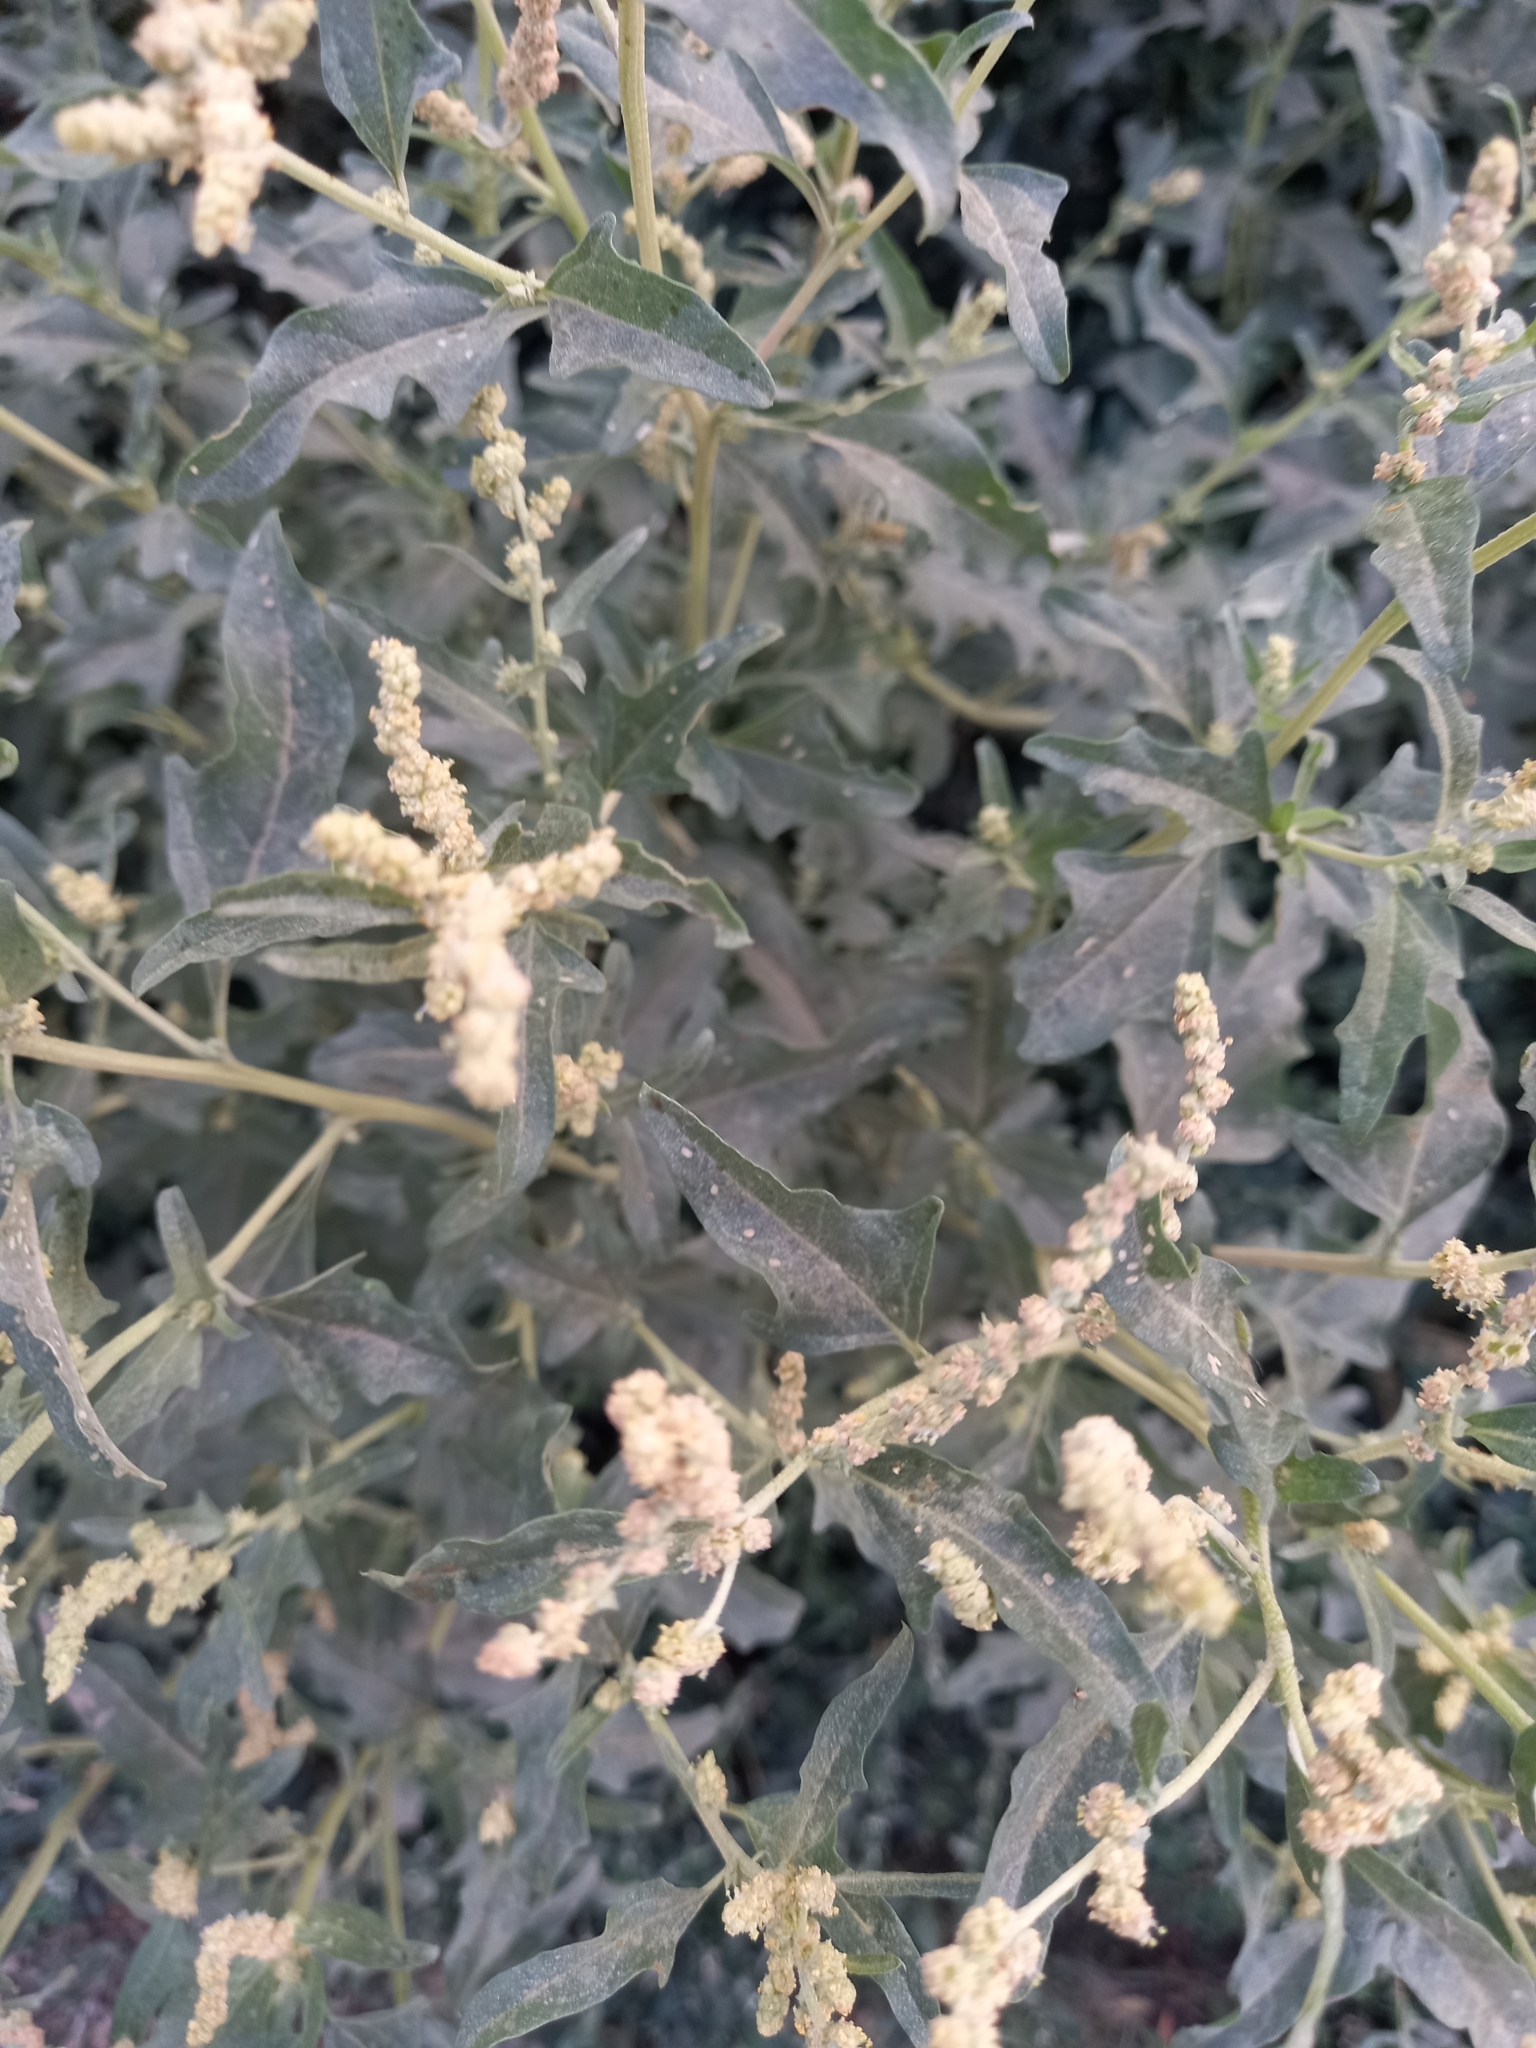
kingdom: Plantae
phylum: Tracheophyta
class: Magnoliopsida
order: Caryophyllales
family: Amaranthaceae
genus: Atriplex
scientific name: Atriplex tatarica
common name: Tatarian orache
